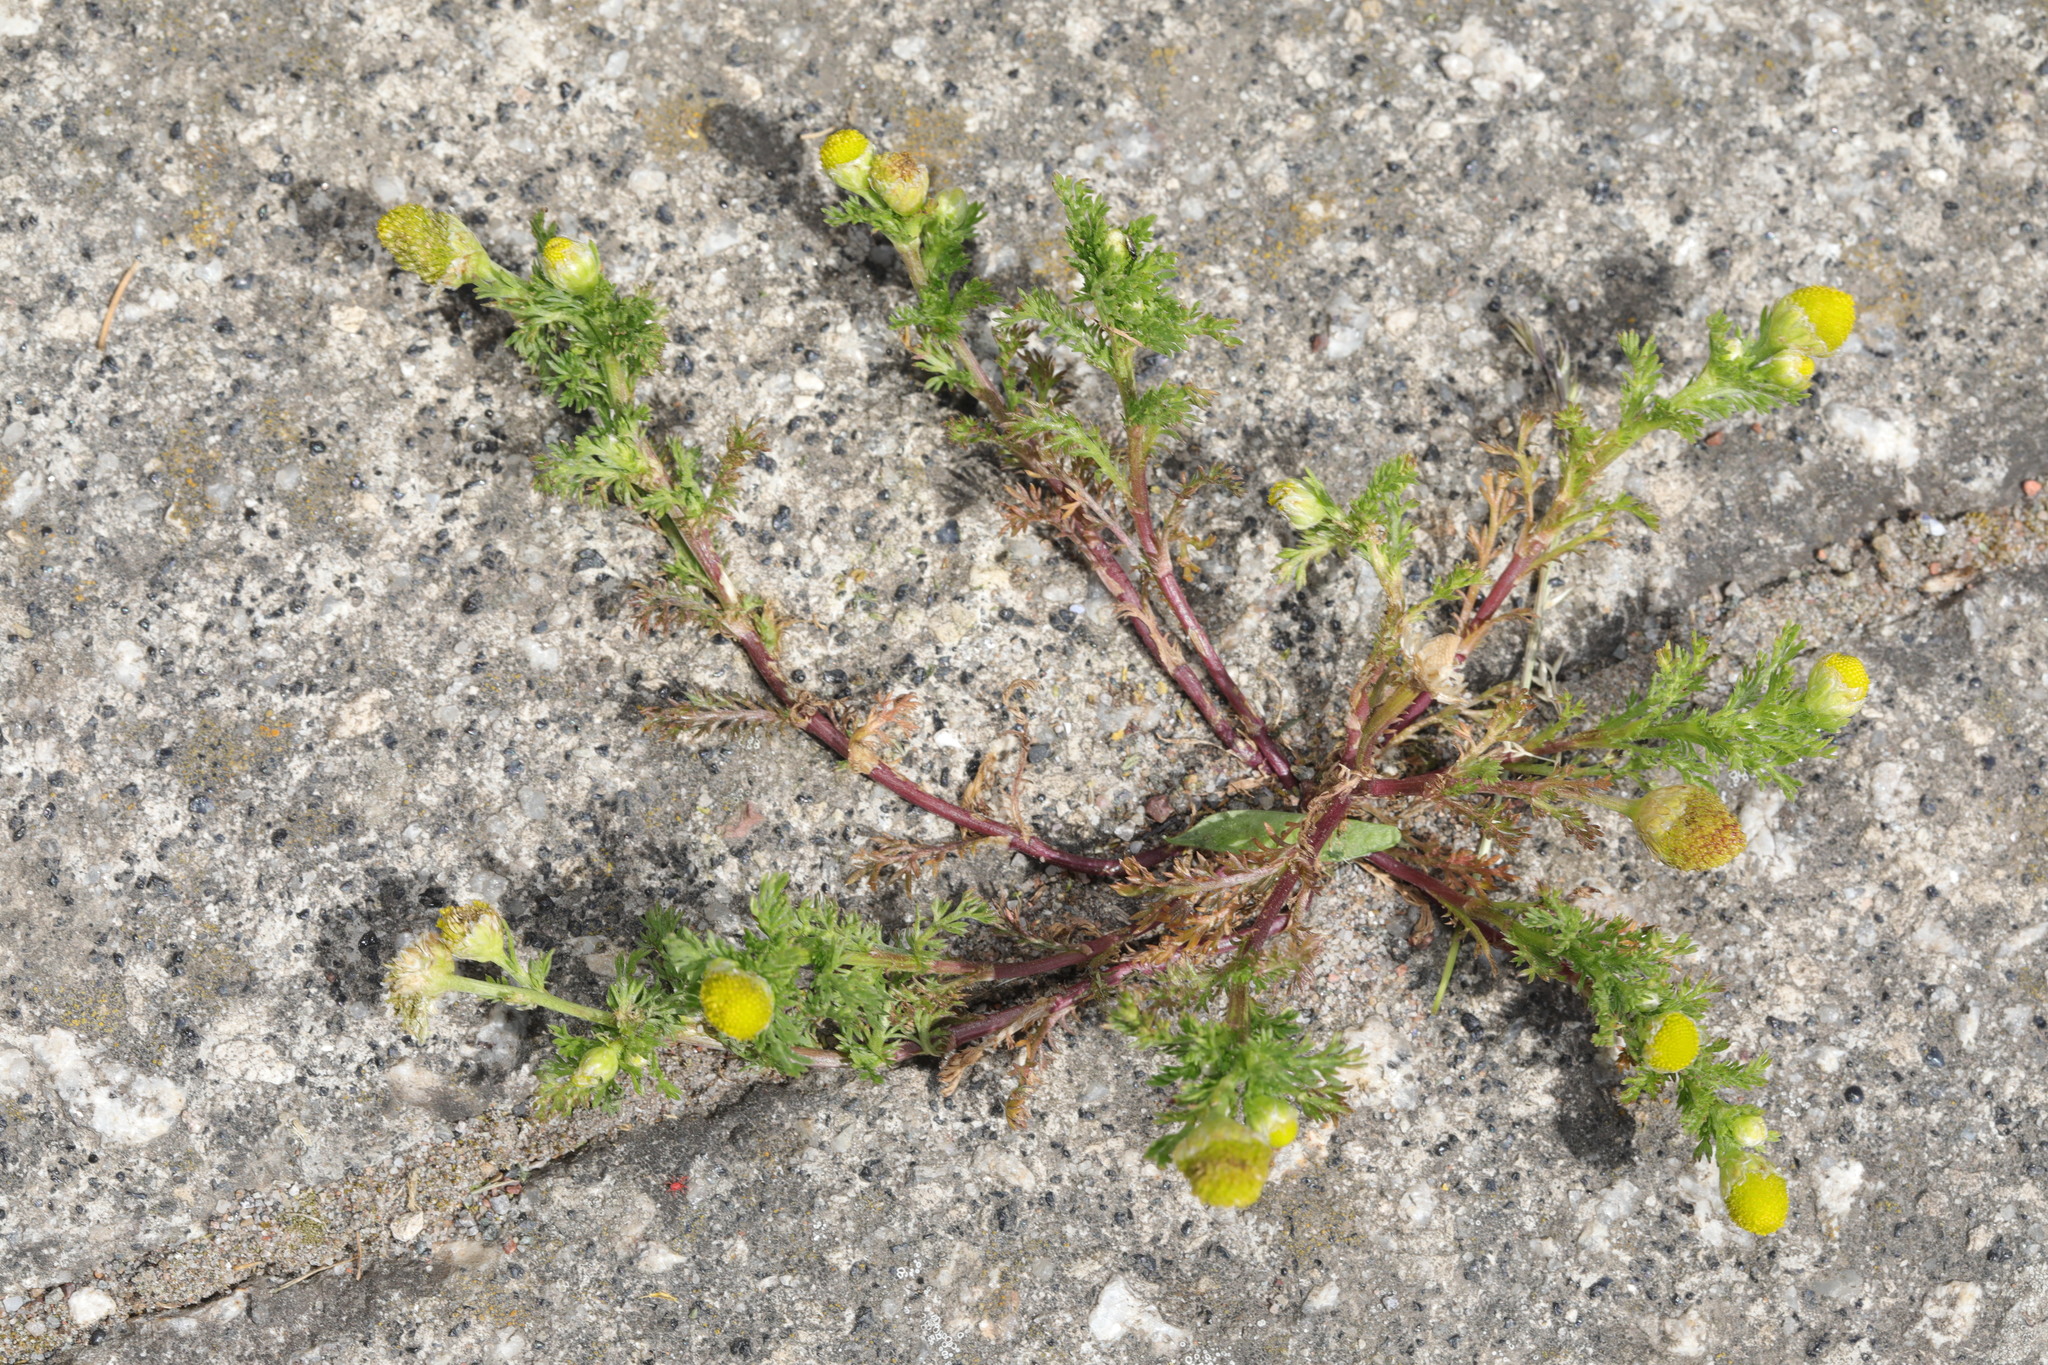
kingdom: Plantae
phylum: Tracheophyta
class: Magnoliopsida
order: Asterales
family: Asteraceae
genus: Matricaria
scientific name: Matricaria discoidea
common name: Disc mayweed
